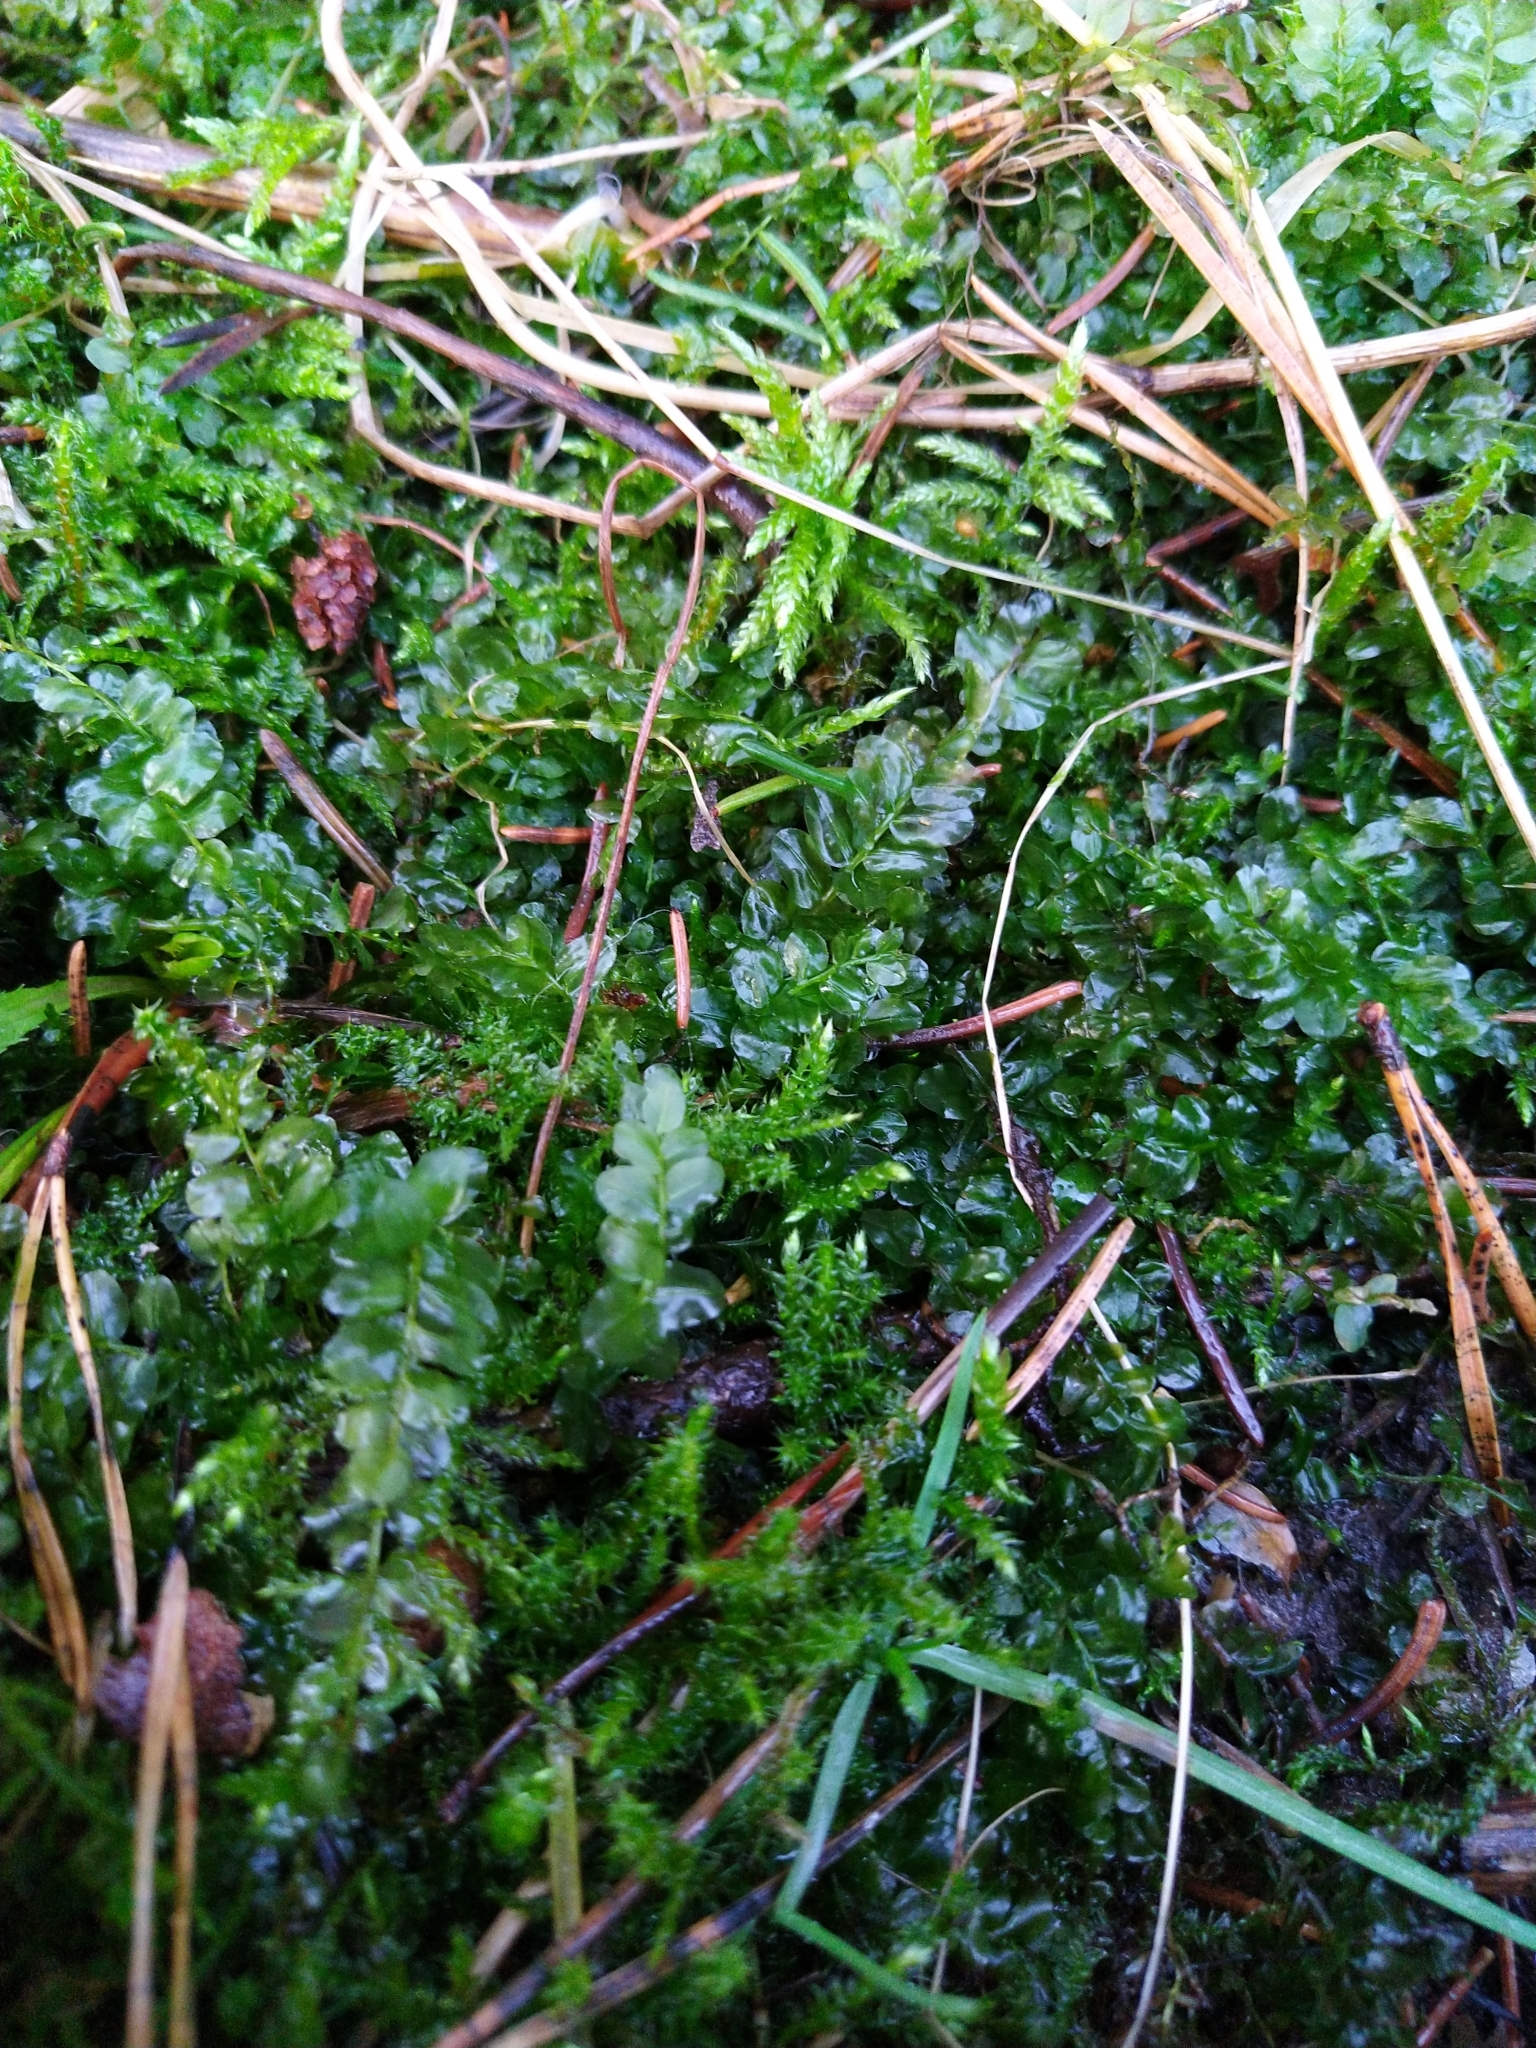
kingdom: Plantae
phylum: Bryophyta
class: Bryopsida
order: Bryales
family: Mniaceae
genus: Plagiomnium
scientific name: Plagiomnium cuspidatum
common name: Woodsy leafy moss
